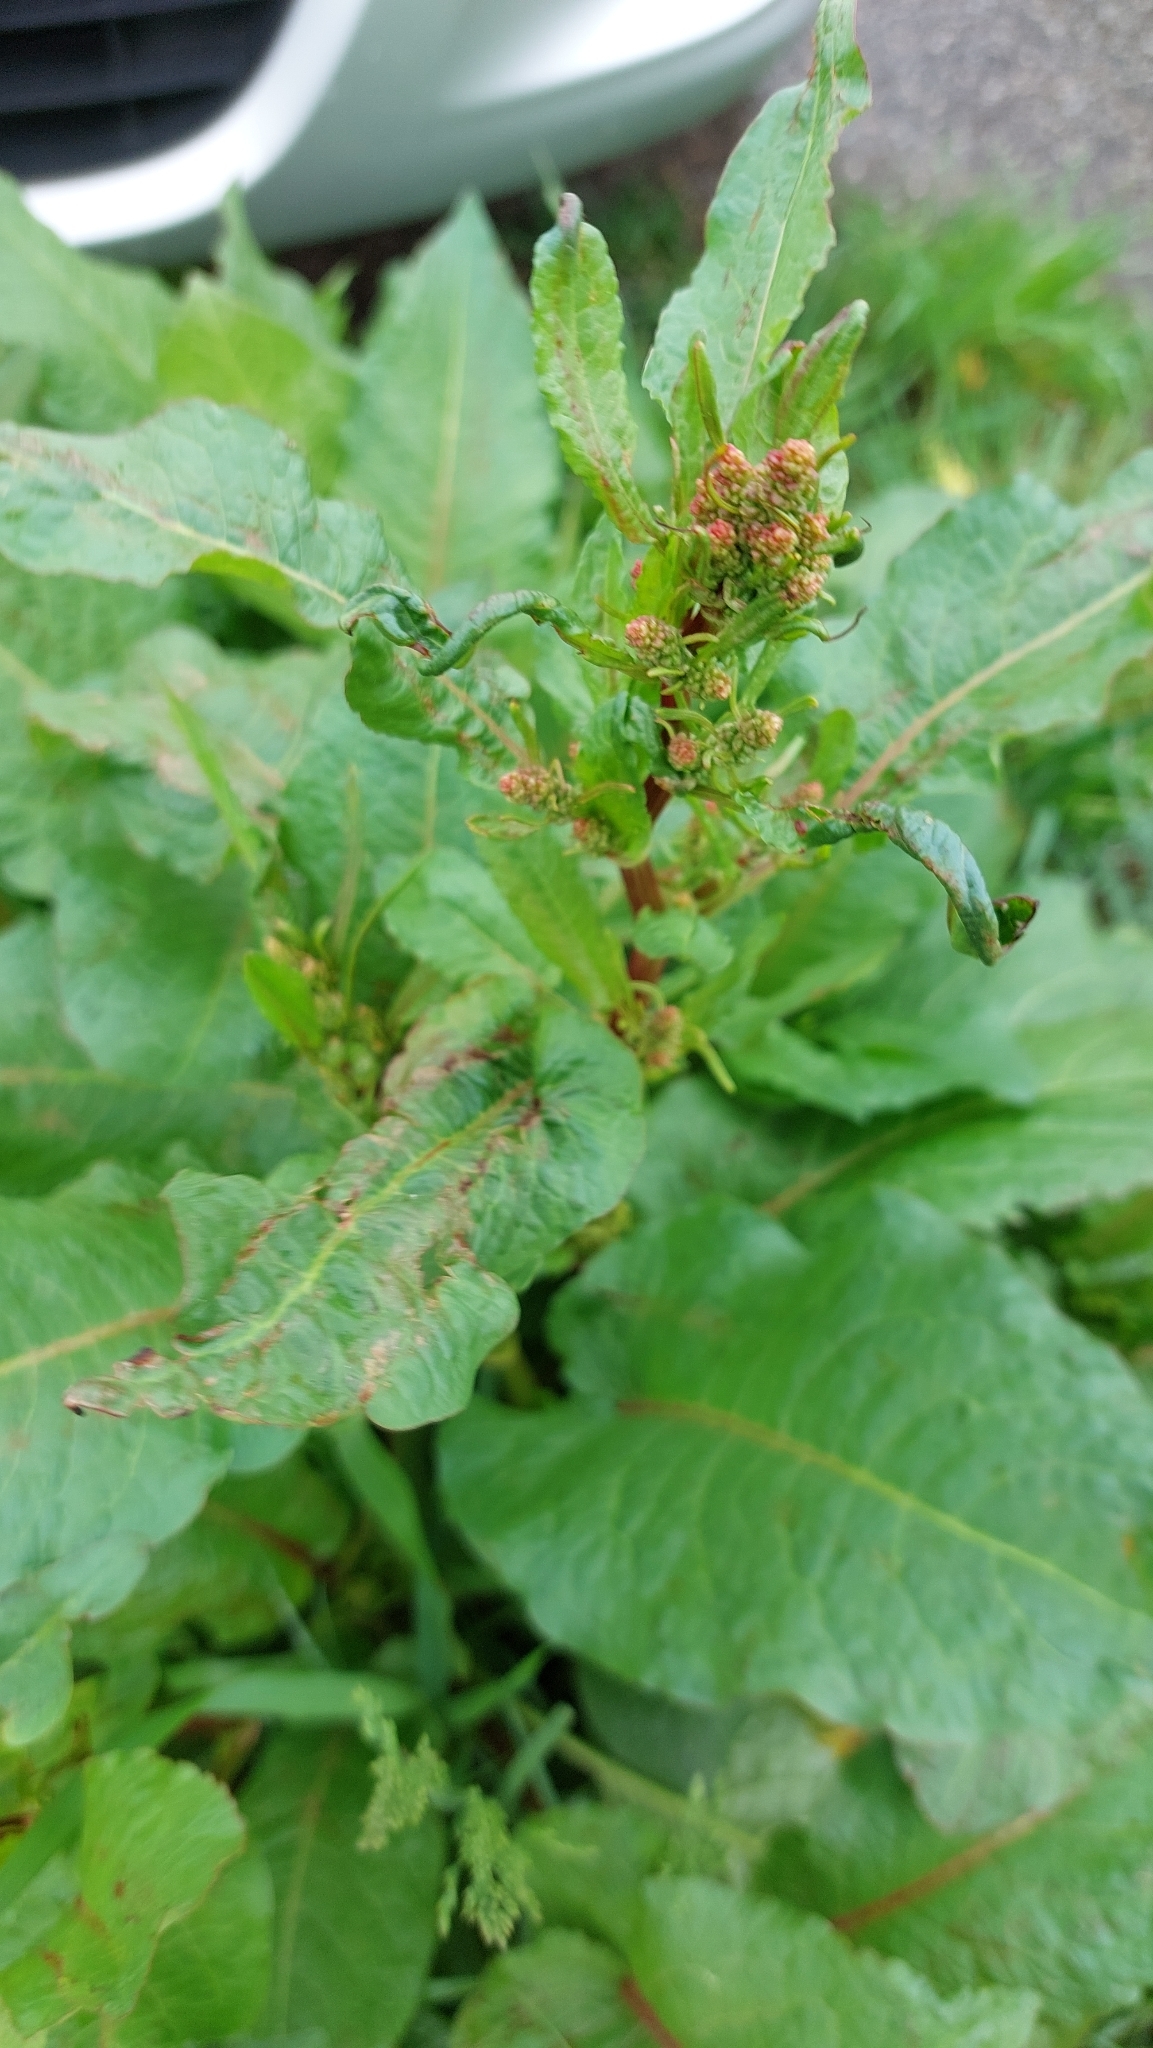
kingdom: Plantae
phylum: Tracheophyta
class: Magnoliopsida
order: Caryophyllales
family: Polygonaceae
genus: Rumex
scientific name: Rumex obtusifolius
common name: Bitter dock
